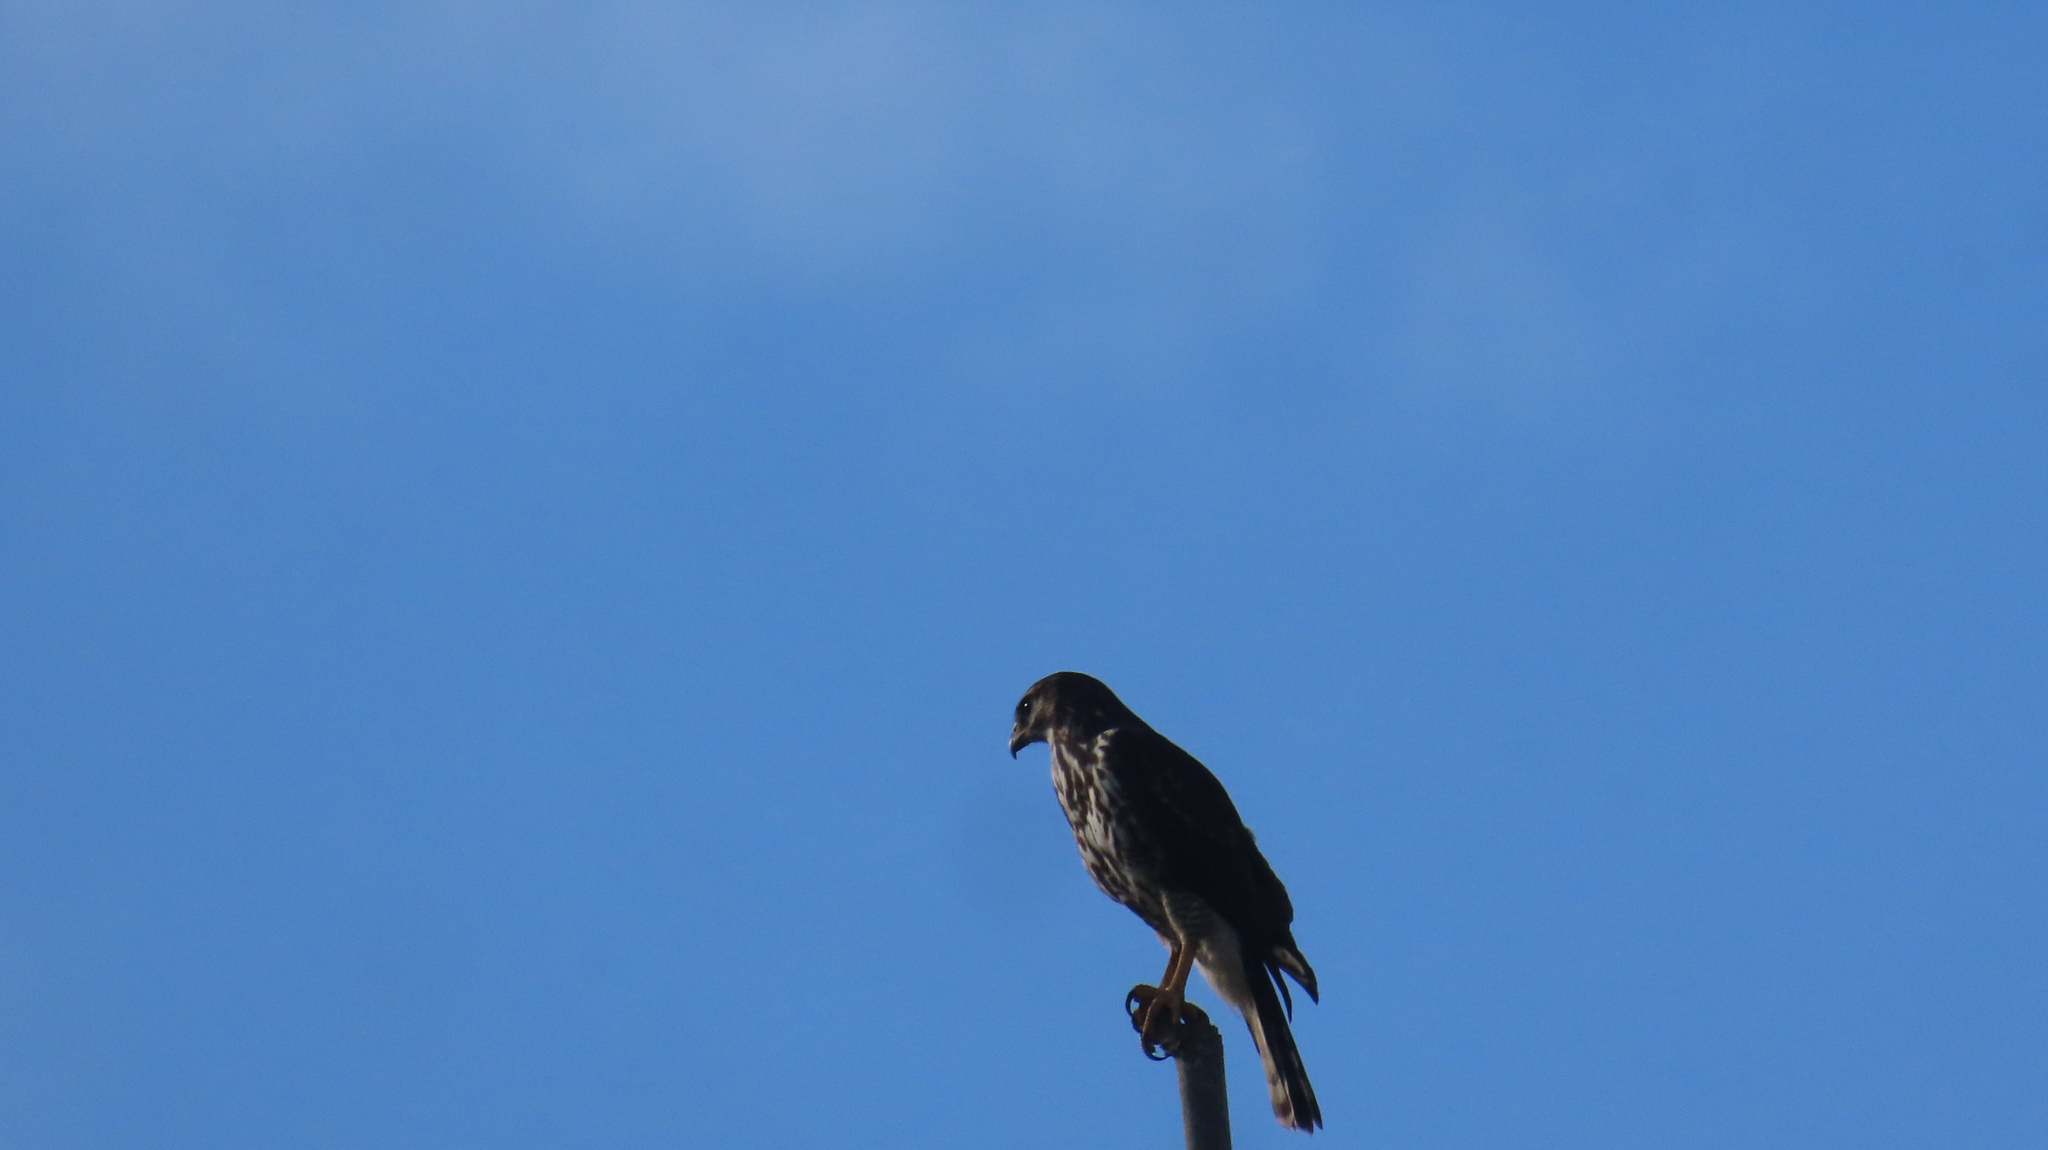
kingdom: Animalia
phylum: Chordata
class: Aves
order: Accipitriformes
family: Accipitridae
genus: Buteo
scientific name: Buteo nitidus
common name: Grey-lined hawk
